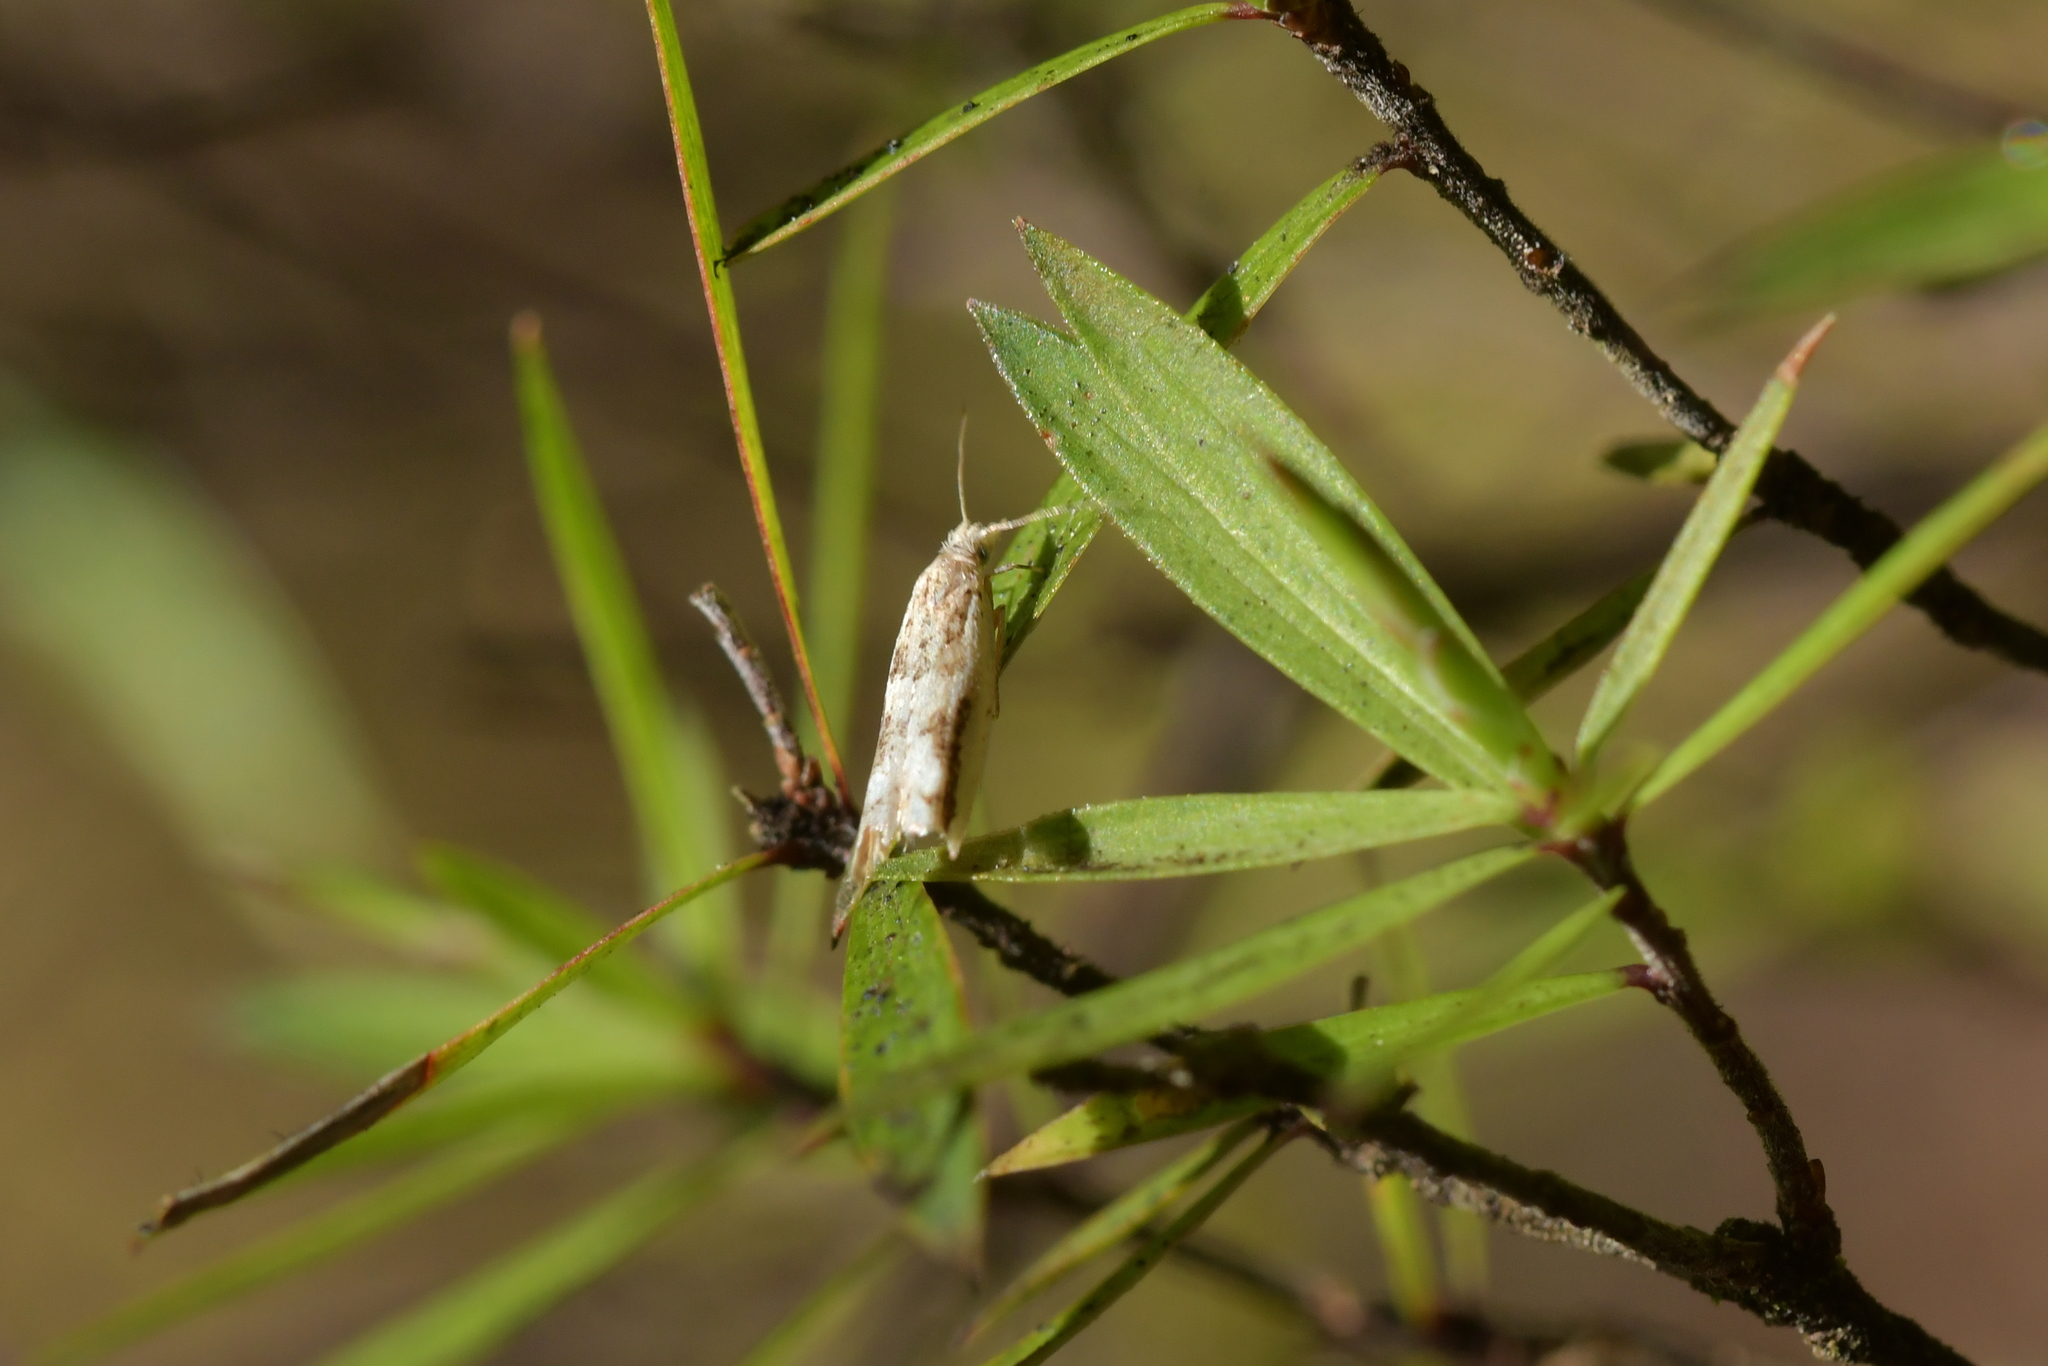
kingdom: Animalia
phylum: Arthropoda
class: Insecta
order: Lepidoptera
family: Tortricidae
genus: Holocola
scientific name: Holocola
